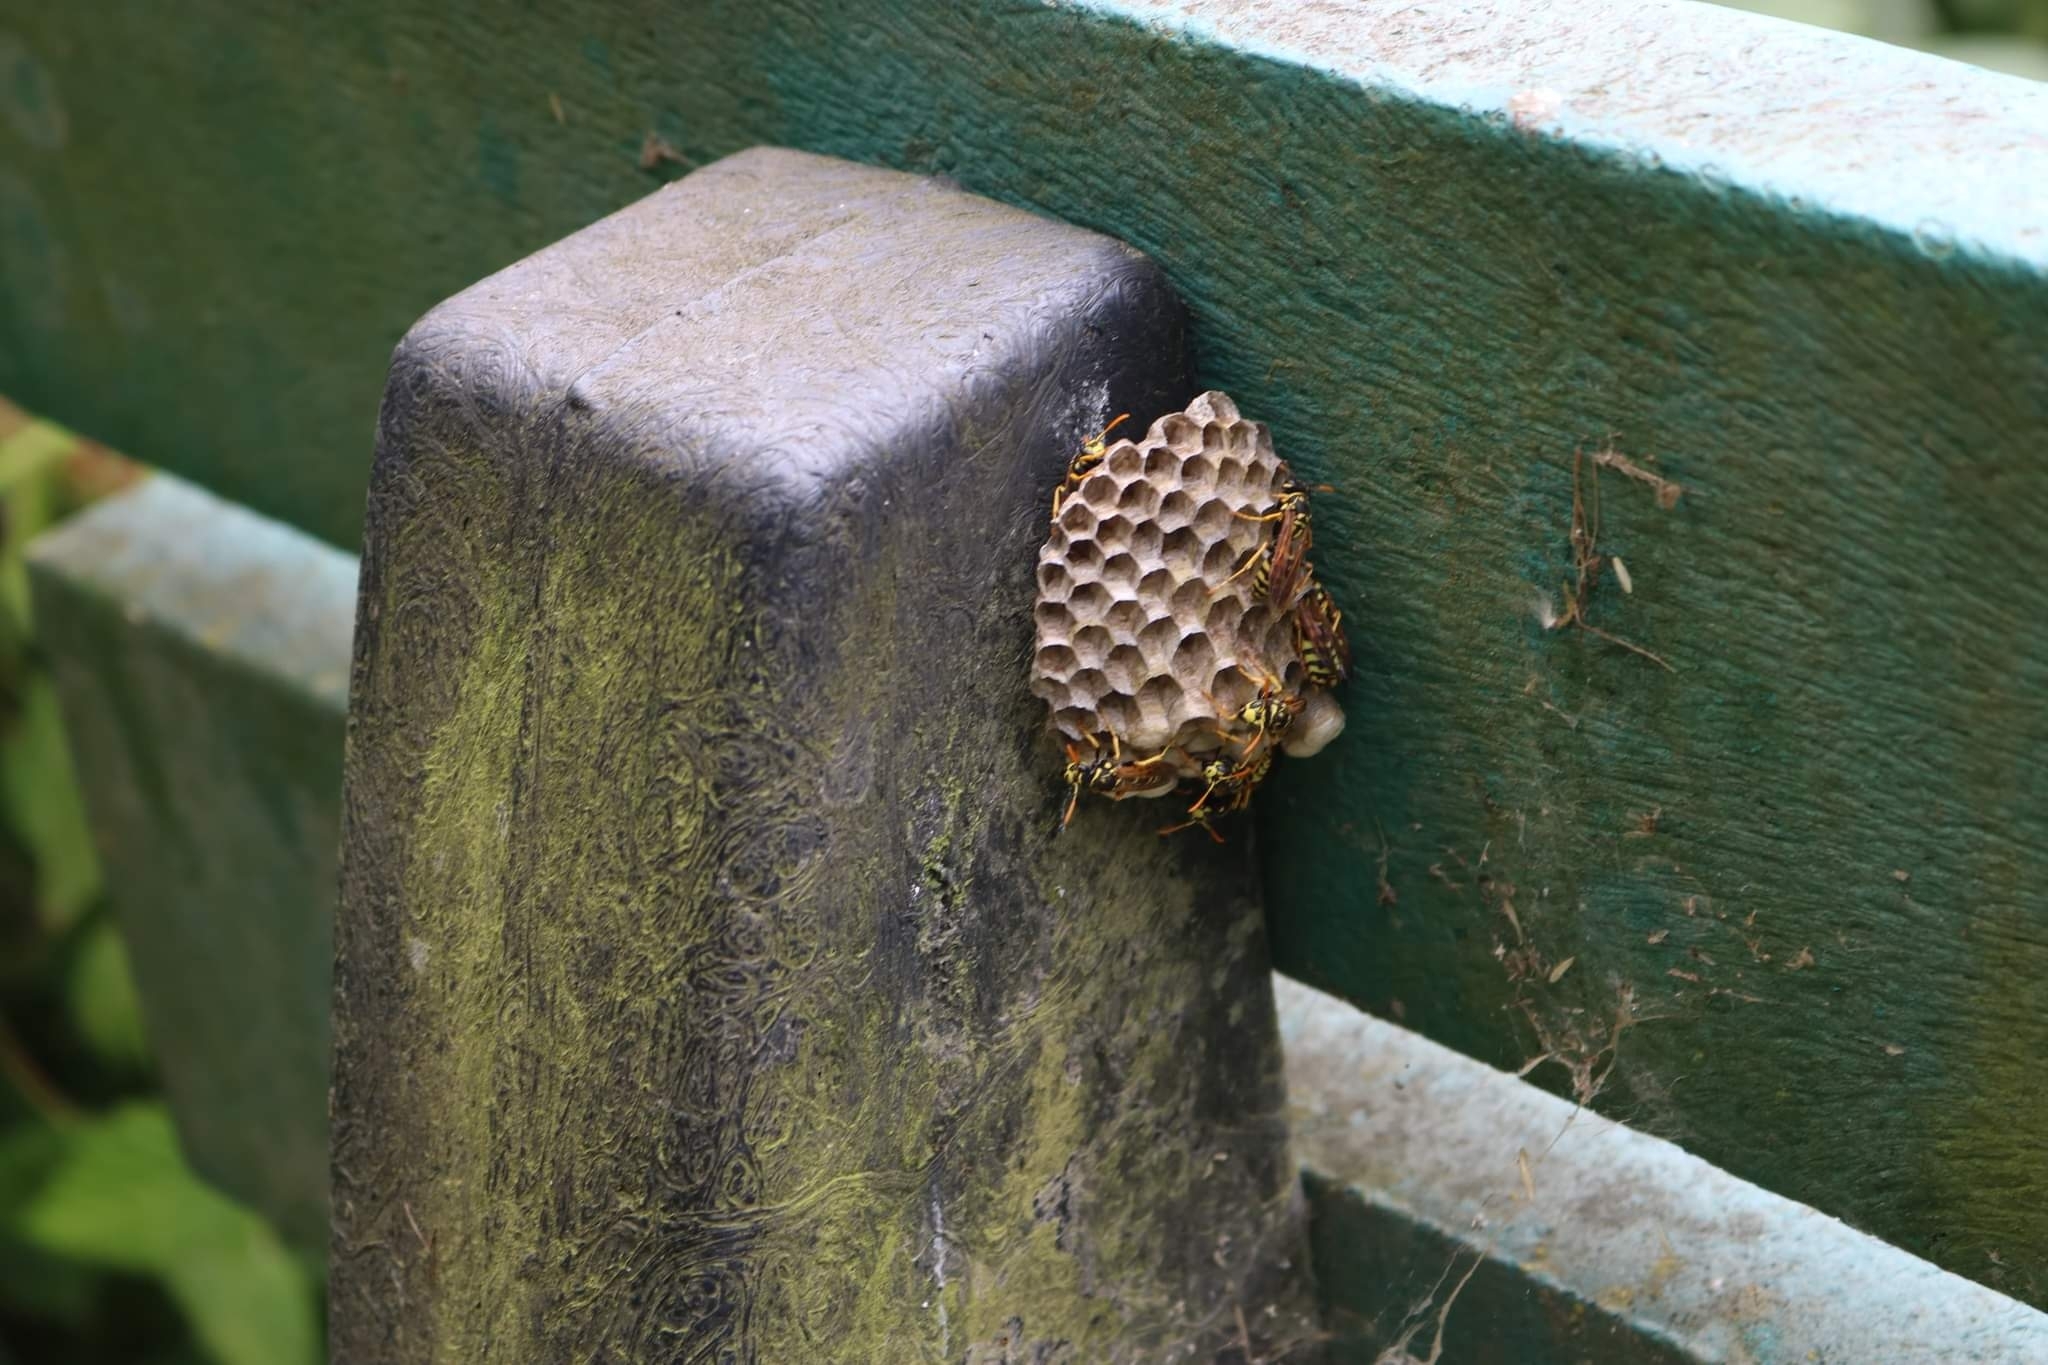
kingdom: Animalia
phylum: Arthropoda
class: Insecta
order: Hymenoptera
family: Eumenidae
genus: Polistes
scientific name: Polistes dominula
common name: Paper wasp
